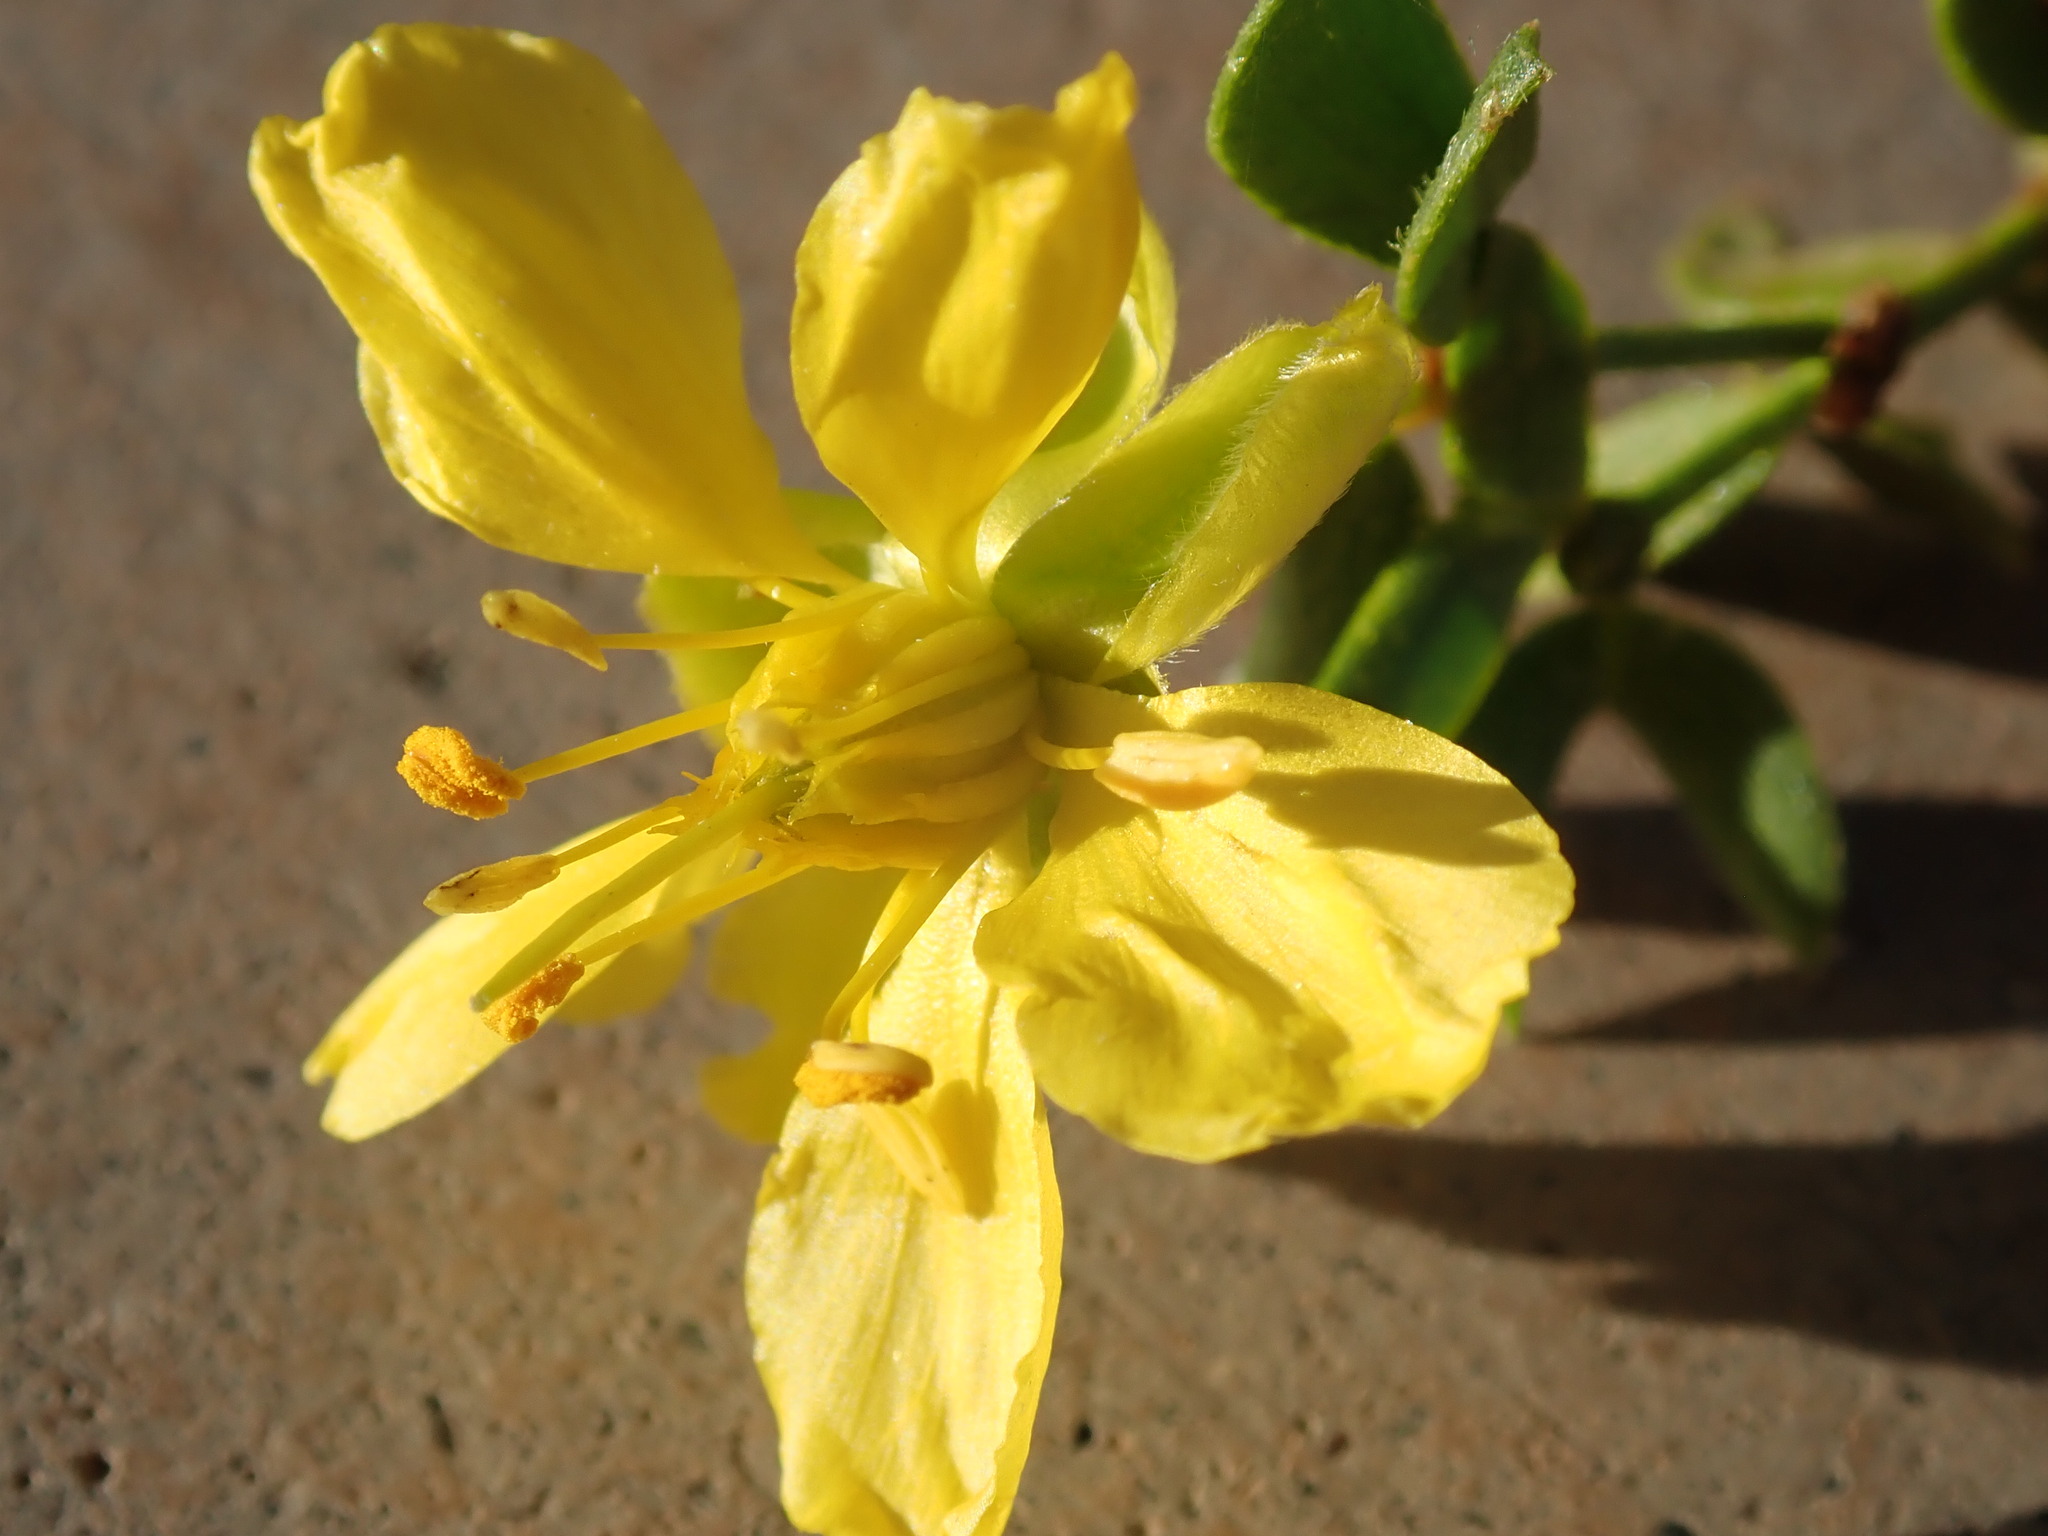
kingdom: Plantae
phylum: Tracheophyta
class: Magnoliopsida
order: Zygophyllales
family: Zygophyllaceae
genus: Larrea
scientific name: Larrea tridentata
